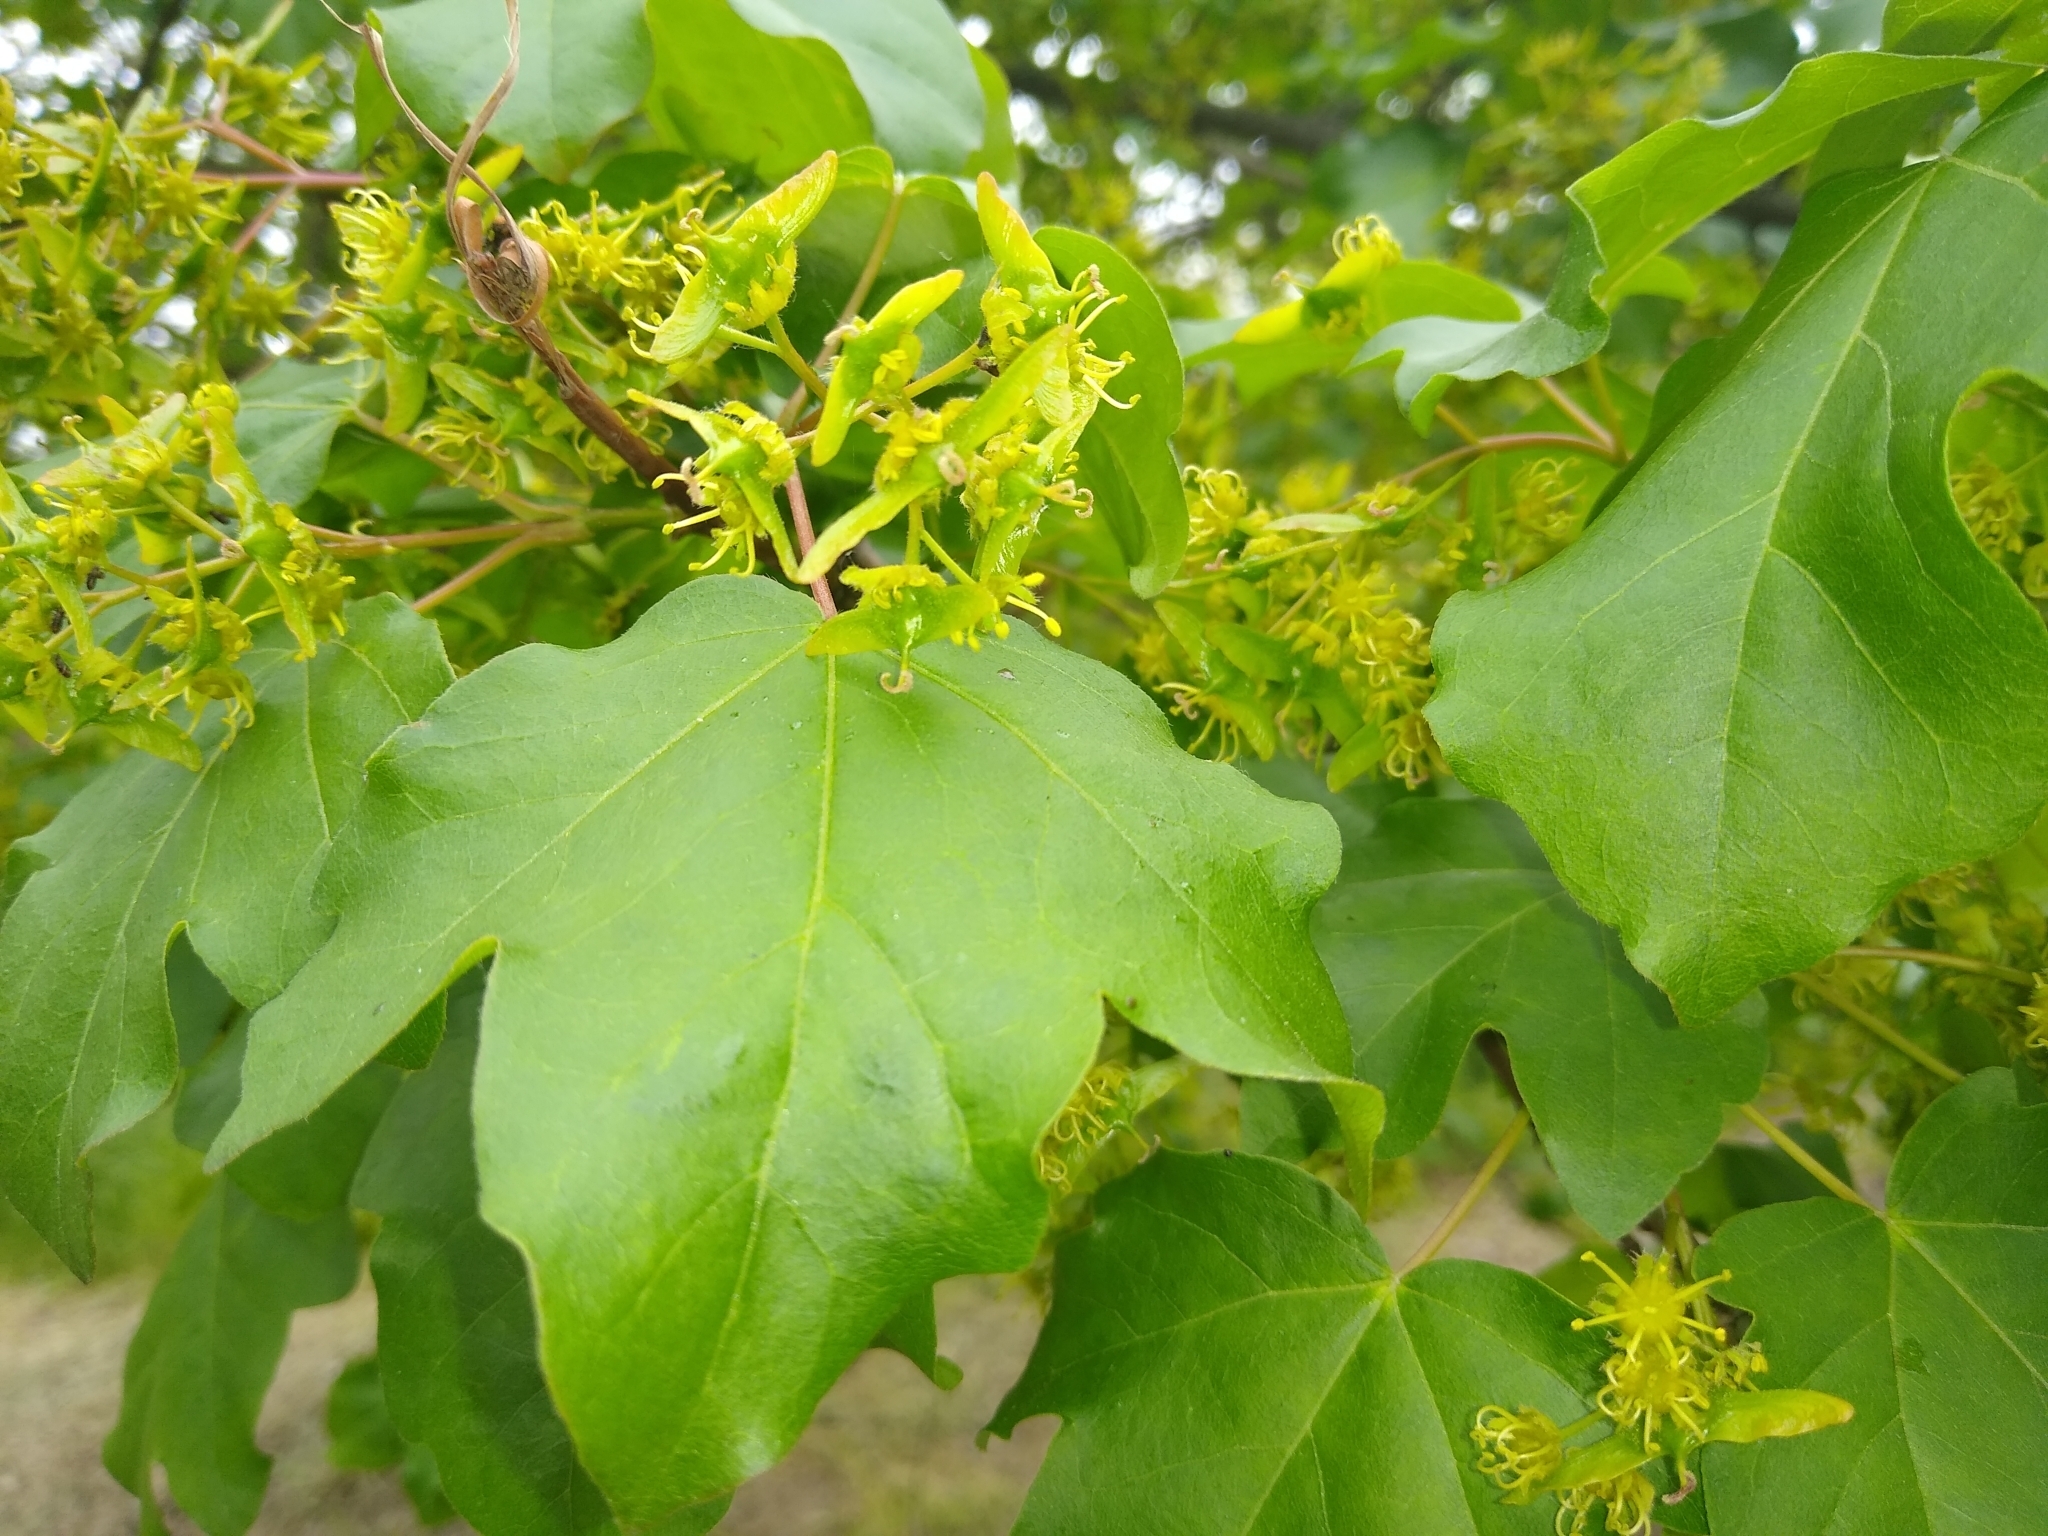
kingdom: Plantae
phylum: Tracheophyta
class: Magnoliopsida
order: Sapindales
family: Sapindaceae
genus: Acer
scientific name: Acer campestre
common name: Field maple
